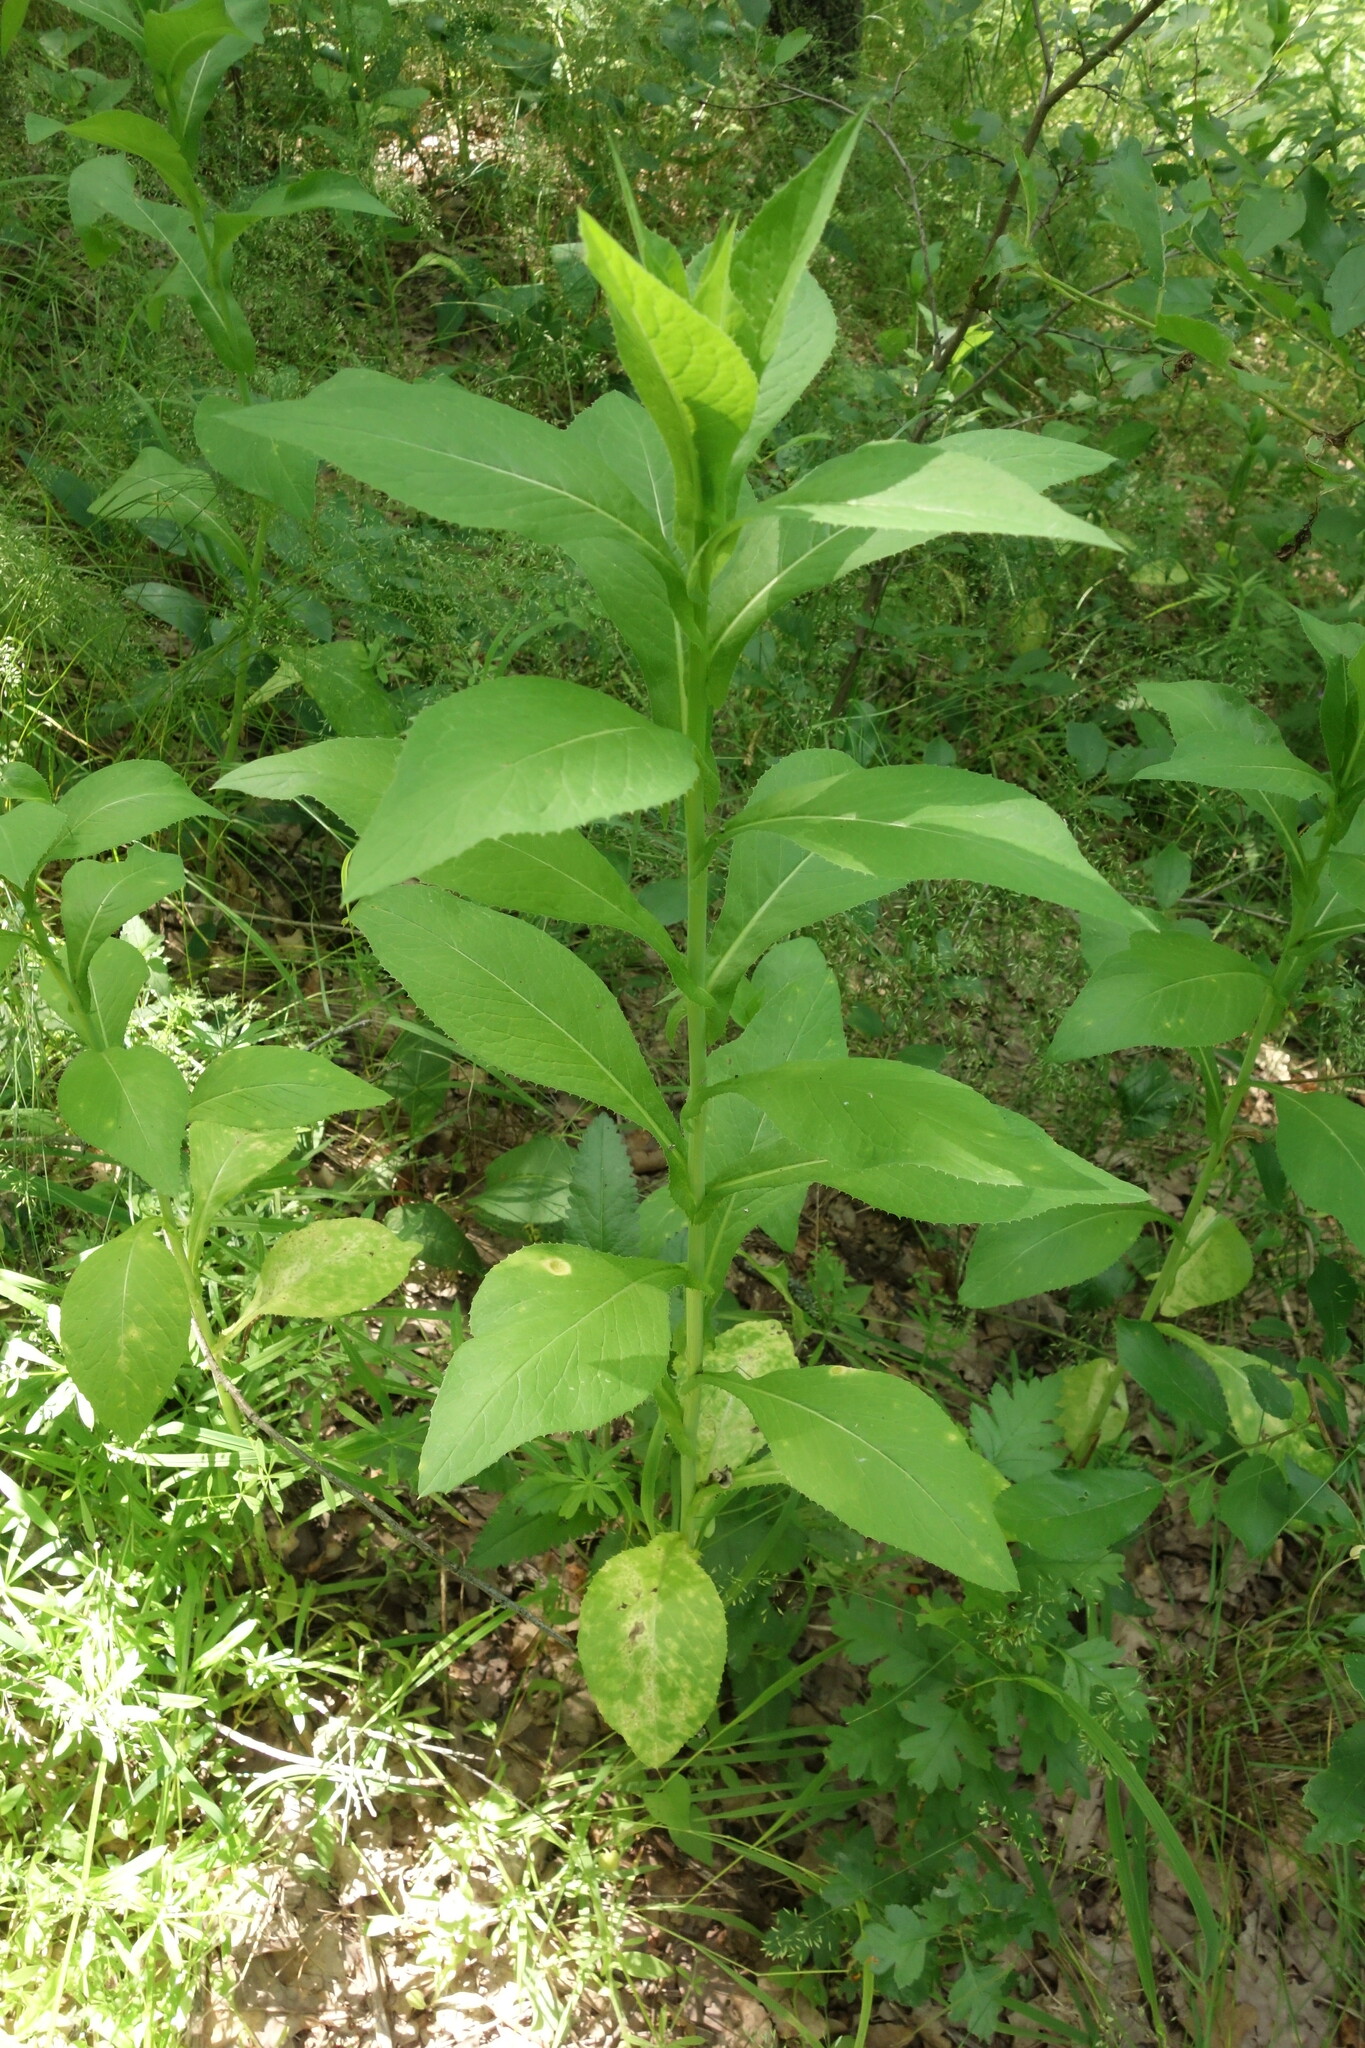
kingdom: Plantae
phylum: Tracheophyta
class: Magnoliopsida
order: Asterales
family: Asteraceae
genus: Lactuca
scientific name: Lactuca quercina
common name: Wild lettuce
